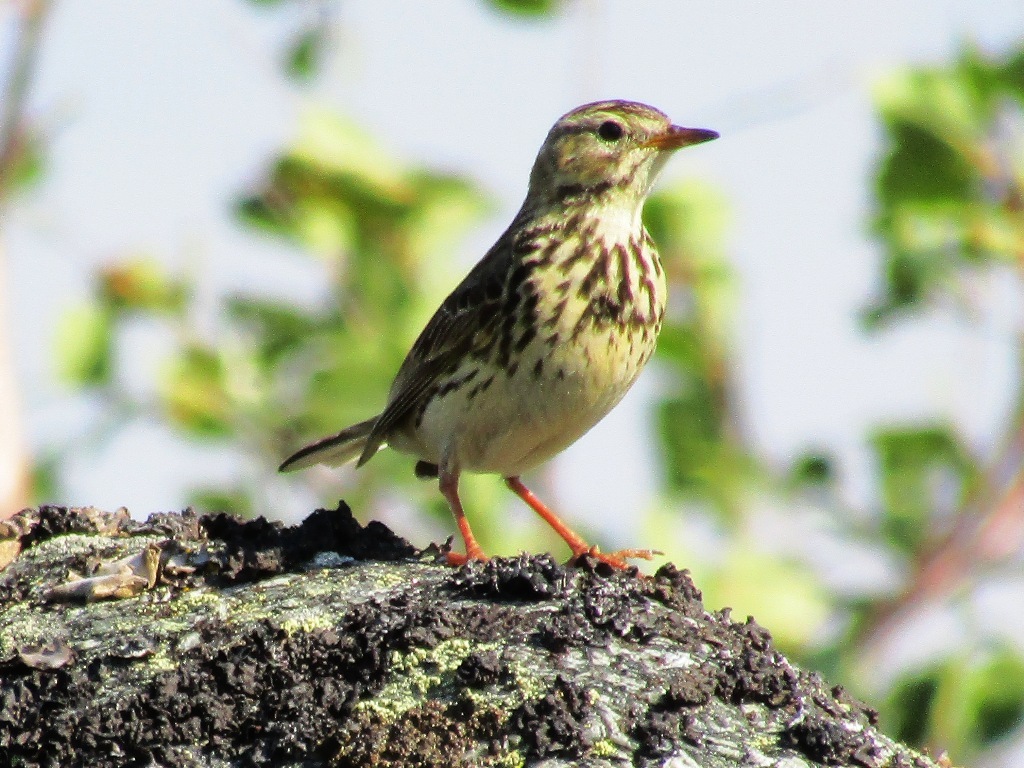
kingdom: Animalia
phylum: Chordata
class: Aves
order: Passeriformes
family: Motacillidae
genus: Anthus
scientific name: Anthus cervinus
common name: Red-throated pipit
